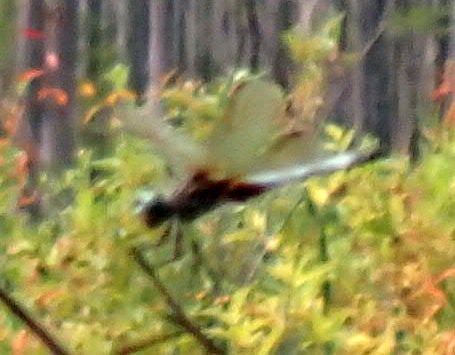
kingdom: Animalia
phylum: Arthropoda
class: Insecta
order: Odonata
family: Libellulidae
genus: Pachydiplax
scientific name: Pachydiplax longipennis
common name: Blue dasher
